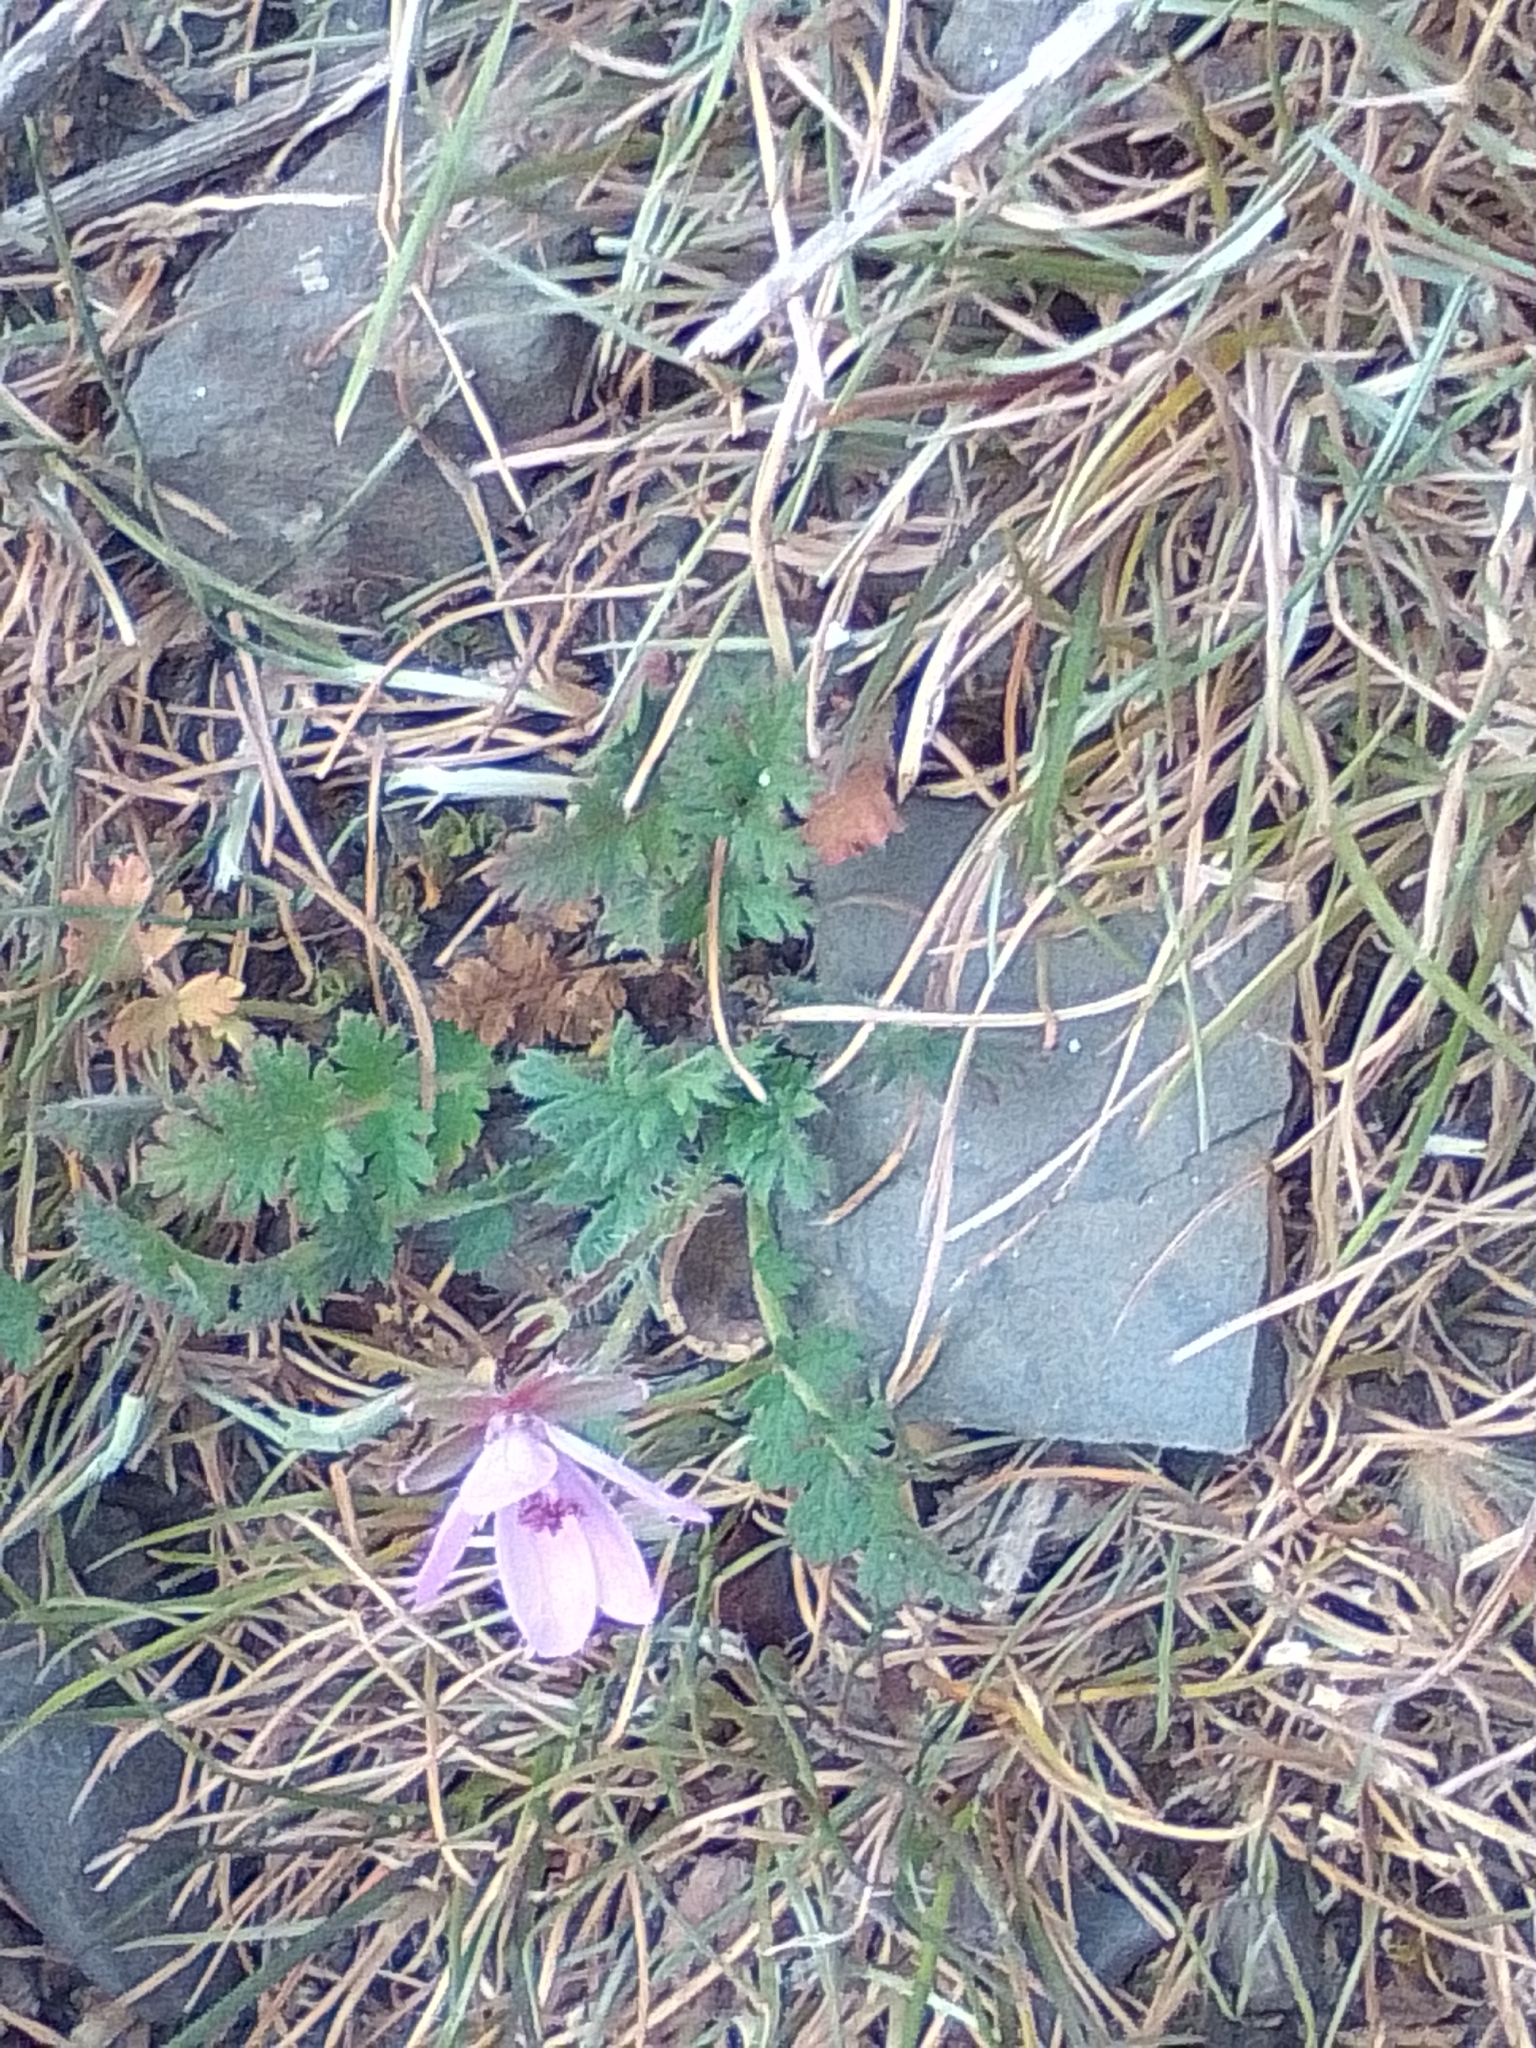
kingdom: Plantae
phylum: Tracheophyta
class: Magnoliopsida
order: Geraniales
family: Geraniaceae
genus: Erodium
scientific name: Erodium cicutarium
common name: Common stork's-bill
